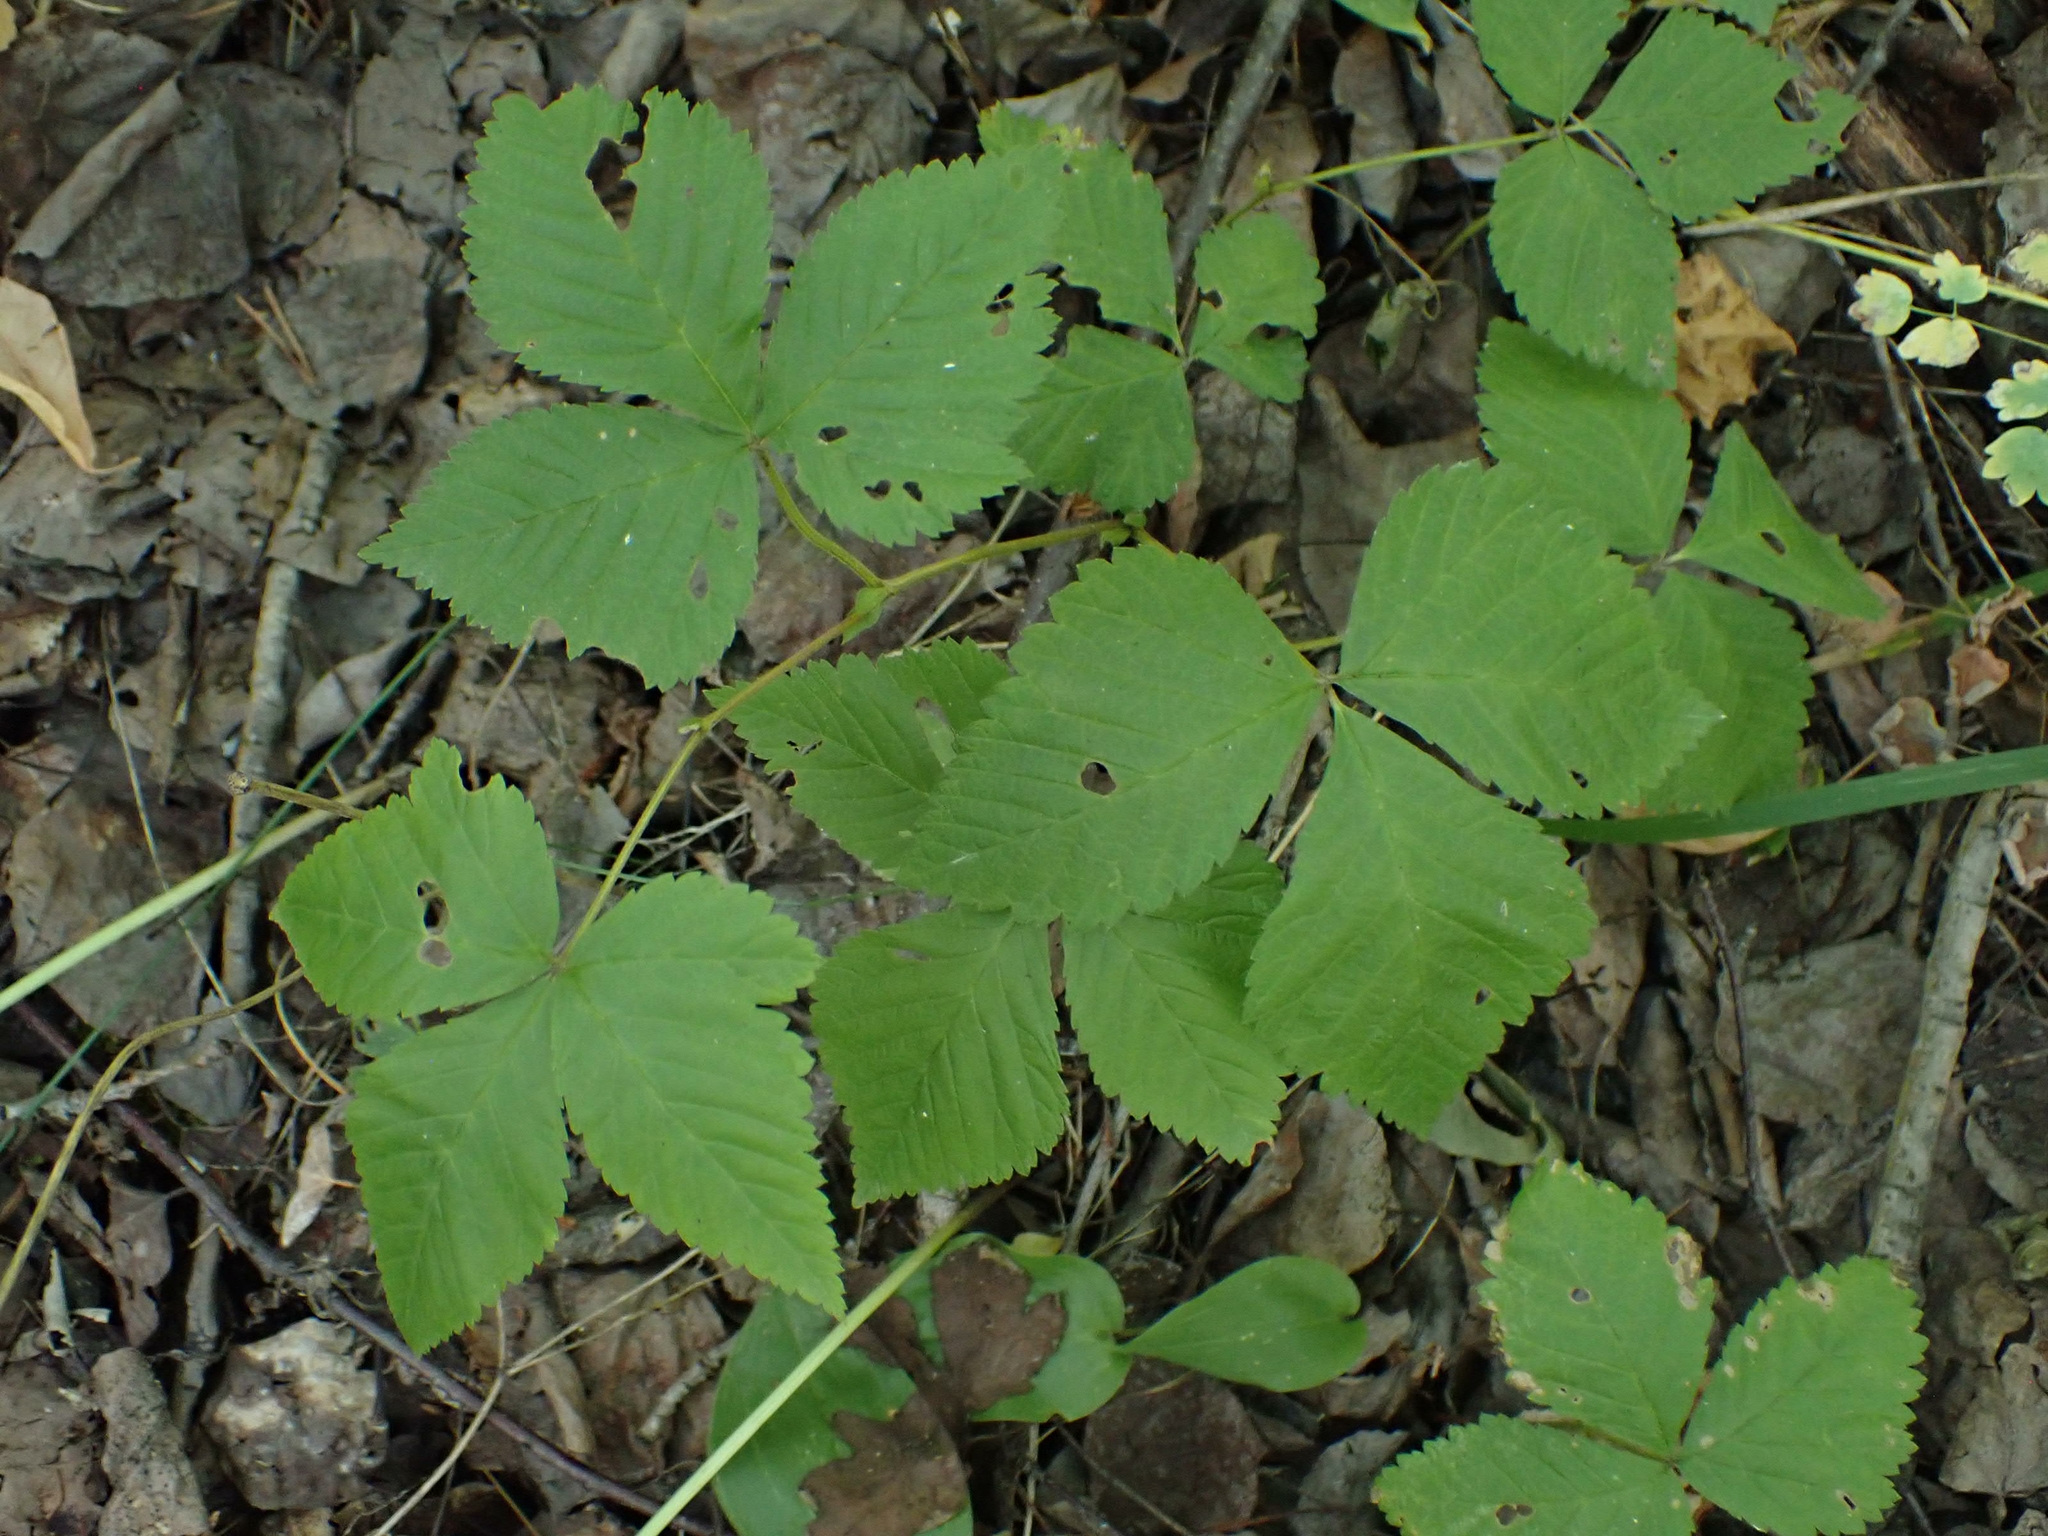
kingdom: Plantae
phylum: Tracheophyta
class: Magnoliopsida
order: Rosales
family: Rosaceae
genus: Rubus
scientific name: Rubus pubescens
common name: Dwarf raspberry
